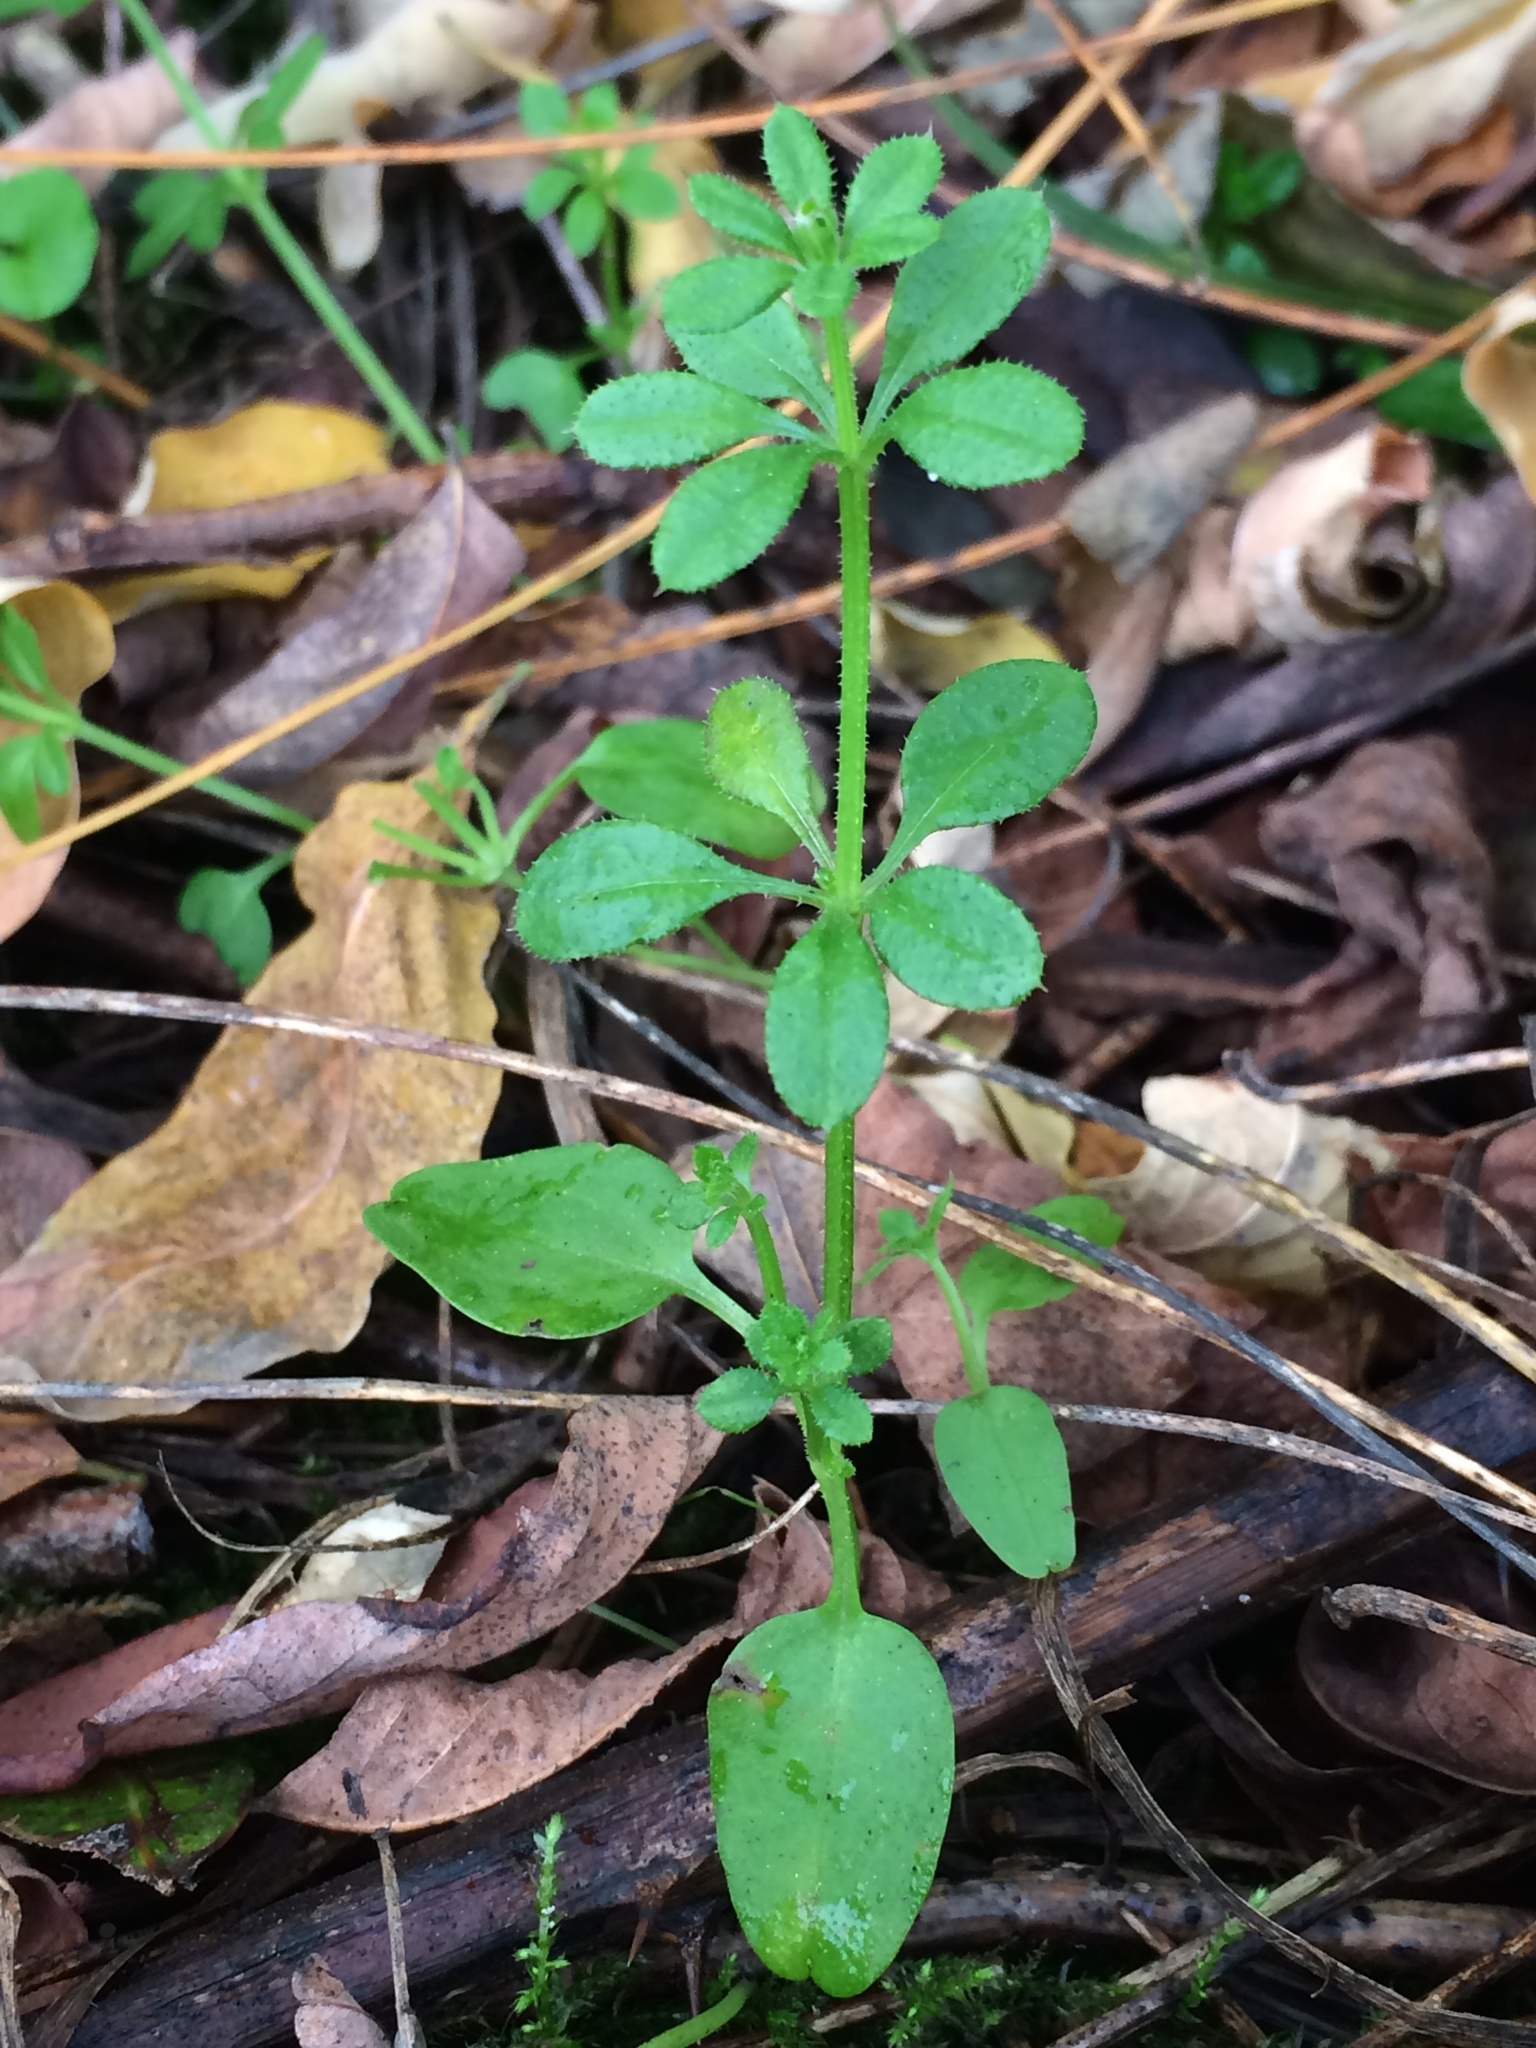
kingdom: Plantae
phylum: Tracheophyta
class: Magnoliopsida
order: Gentianales
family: Rubiaceae
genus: Galium
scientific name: Galium aparine
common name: Cleavers
